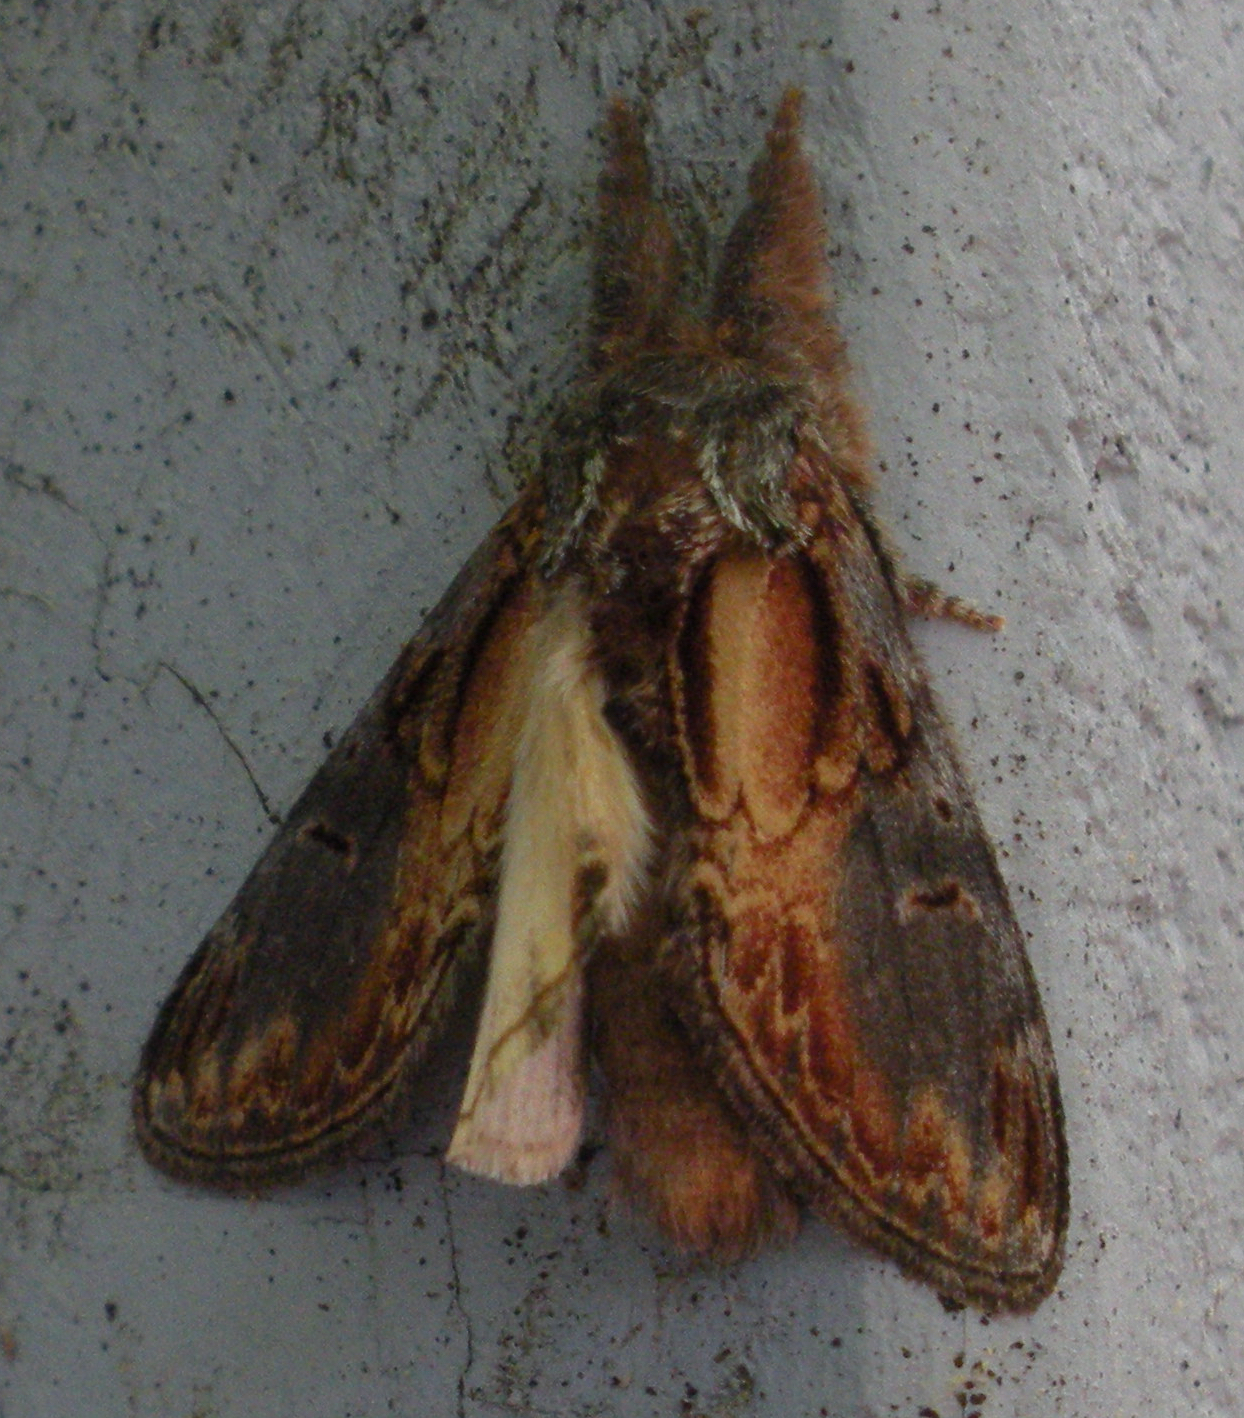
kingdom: Animalia
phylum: Arthropoda
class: Insecta
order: Lepidoptera
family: Notodontidae
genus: Notodonta
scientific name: Notodonta scitipennis
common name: Finned-willow prominent moth
